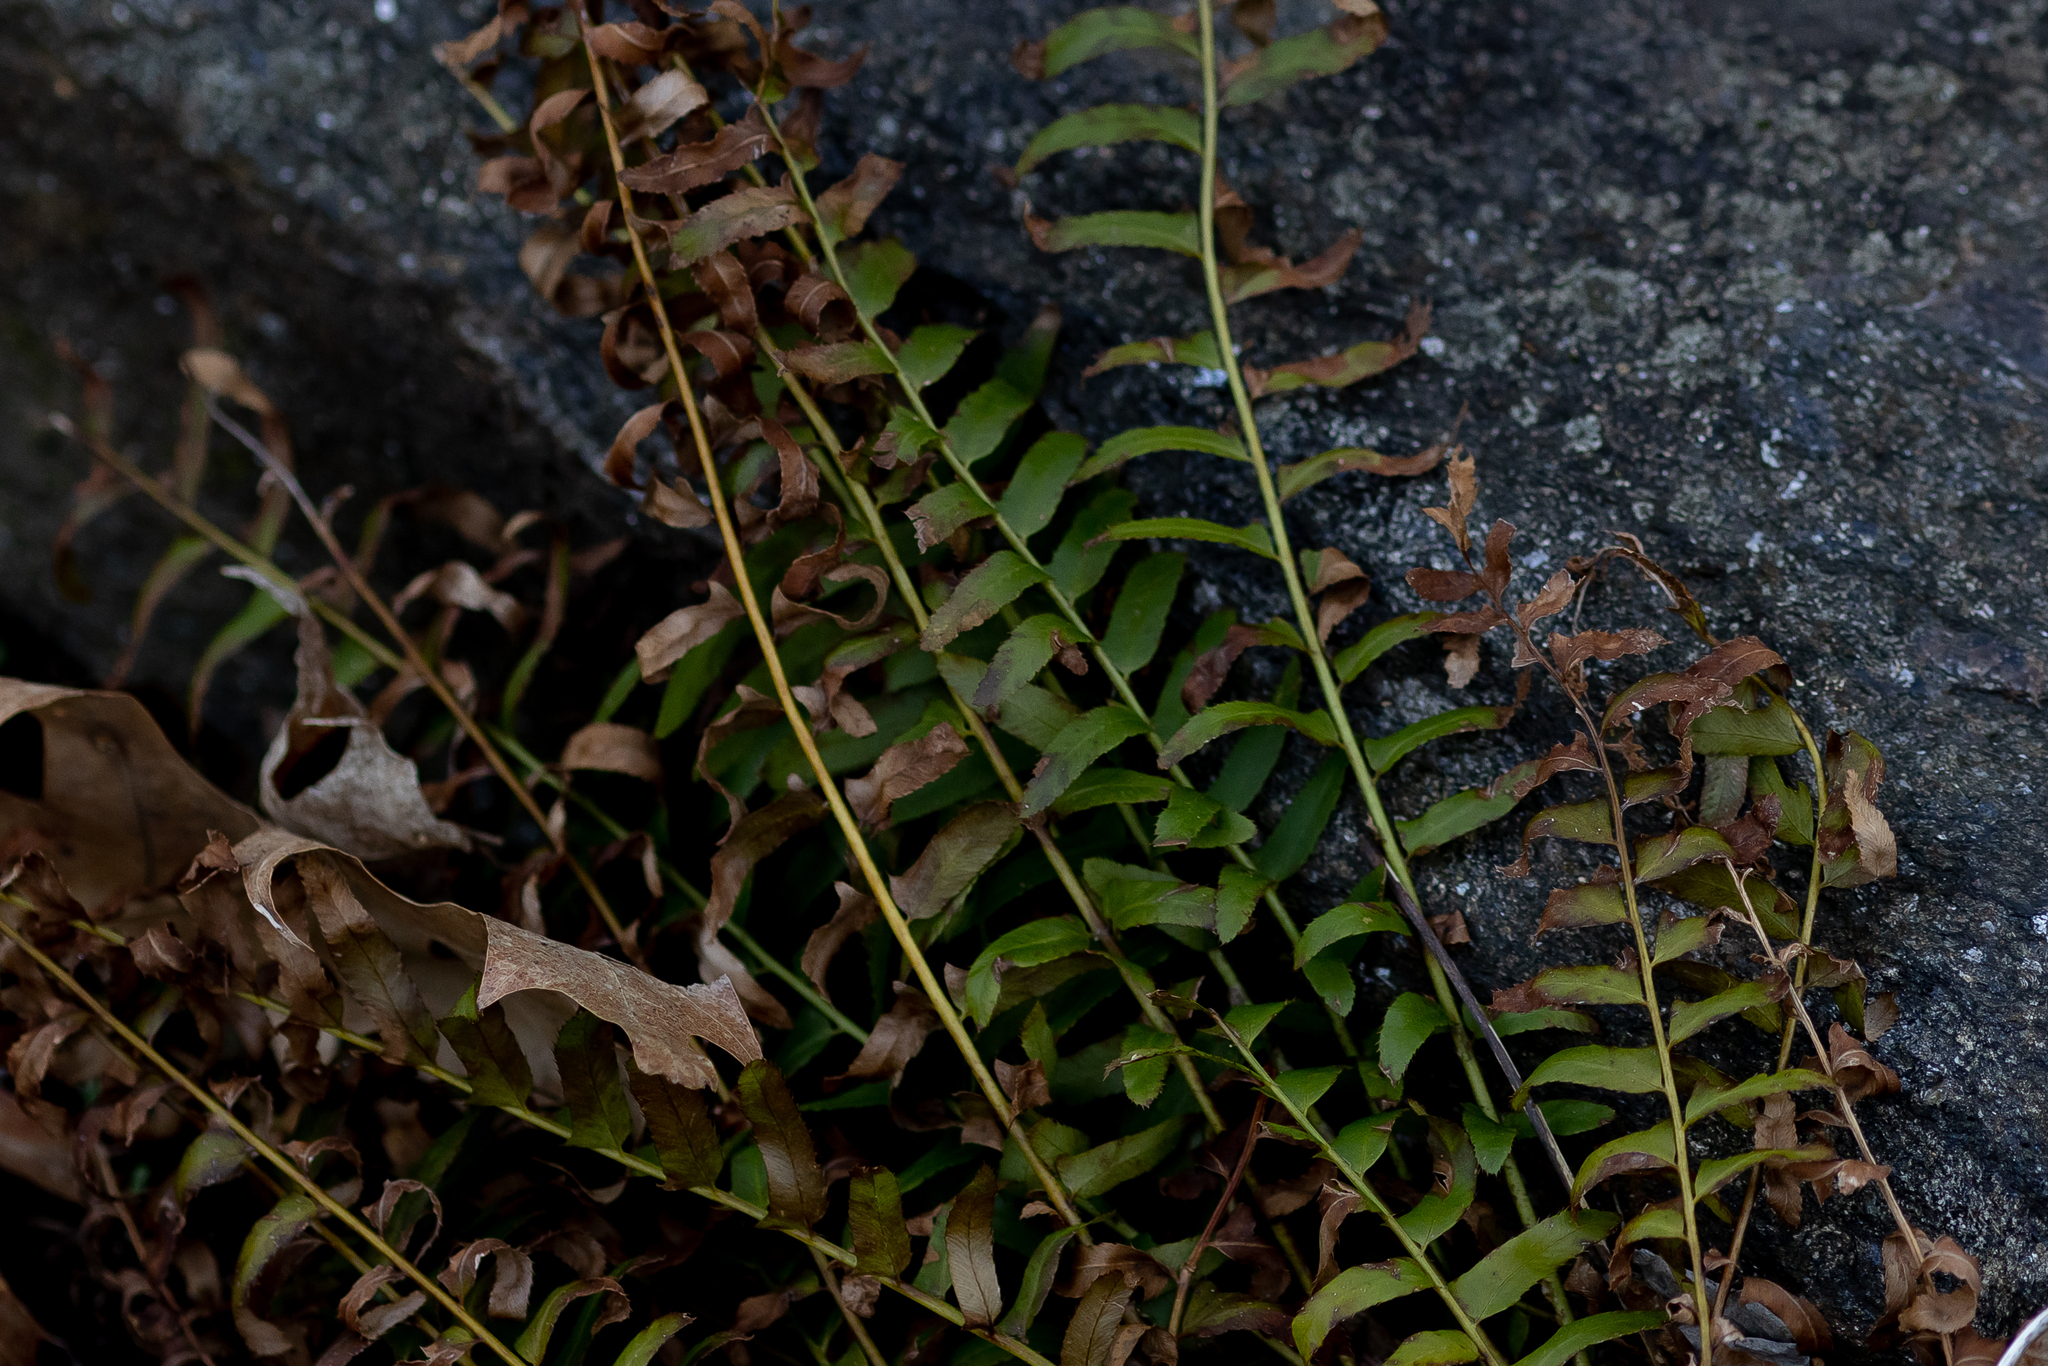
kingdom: Plantae
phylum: Tracheophyta
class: Polypodiopsida
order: Polypodiales
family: Dryopteridaceae
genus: Polystichum
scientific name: Polystichum acrostichoides
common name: Christmas fern
